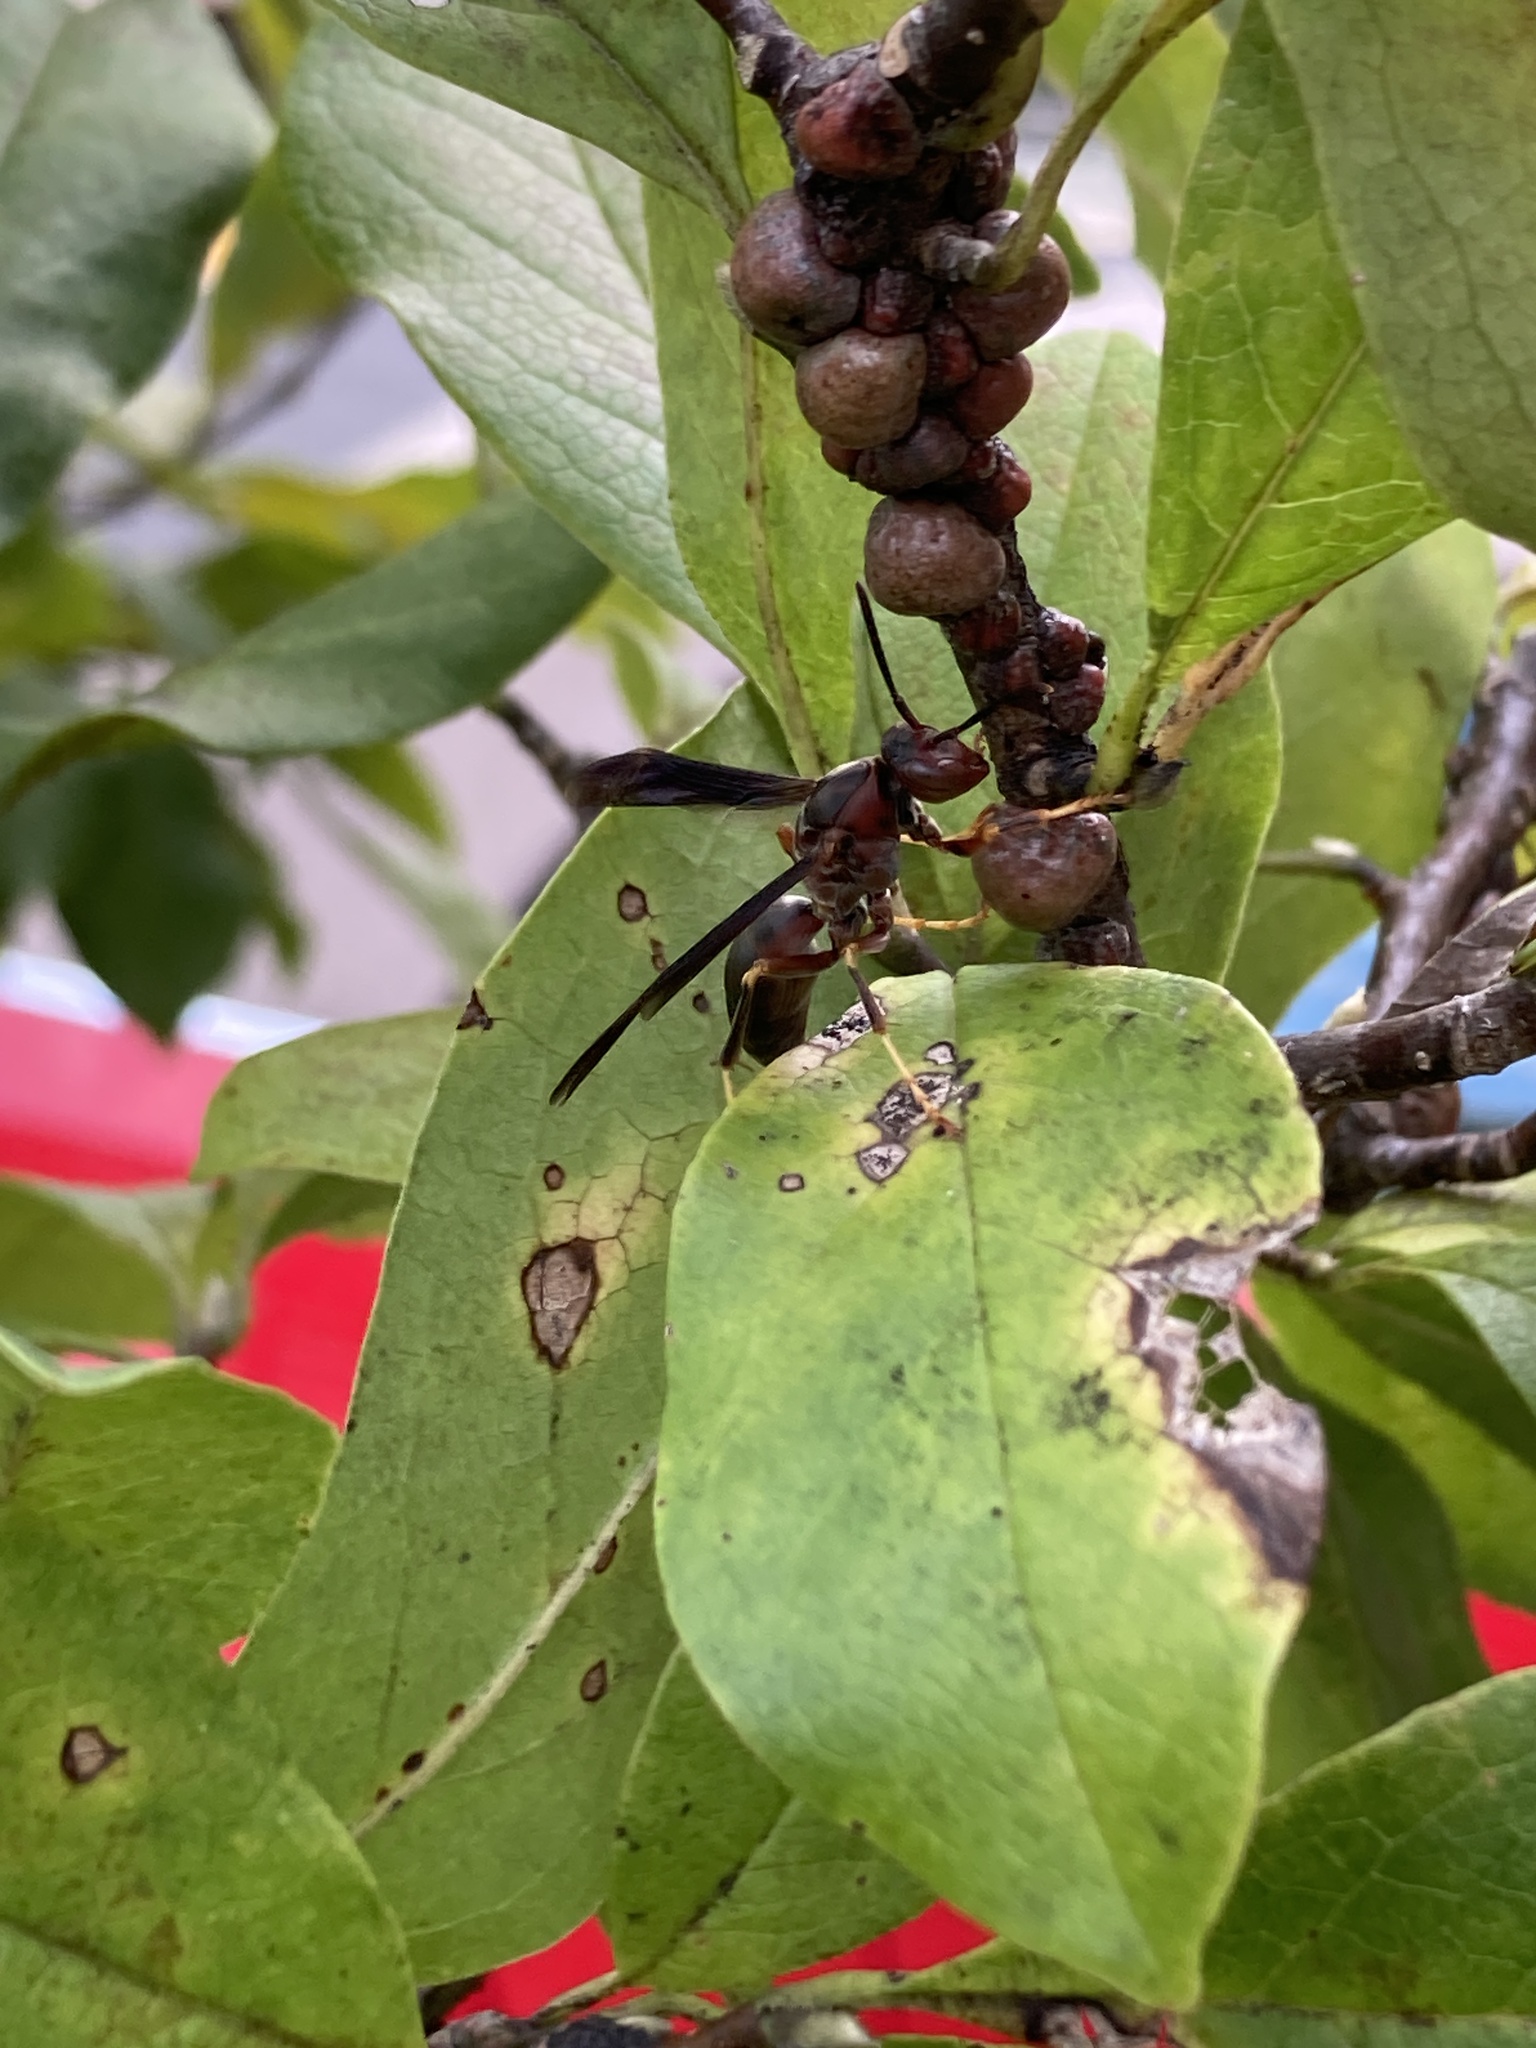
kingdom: Animalia
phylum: Arthropoda
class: Insecta
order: Hymenoptera
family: Eumenidae
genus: Polistes
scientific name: Polistes metricus
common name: Metric paper wasp
